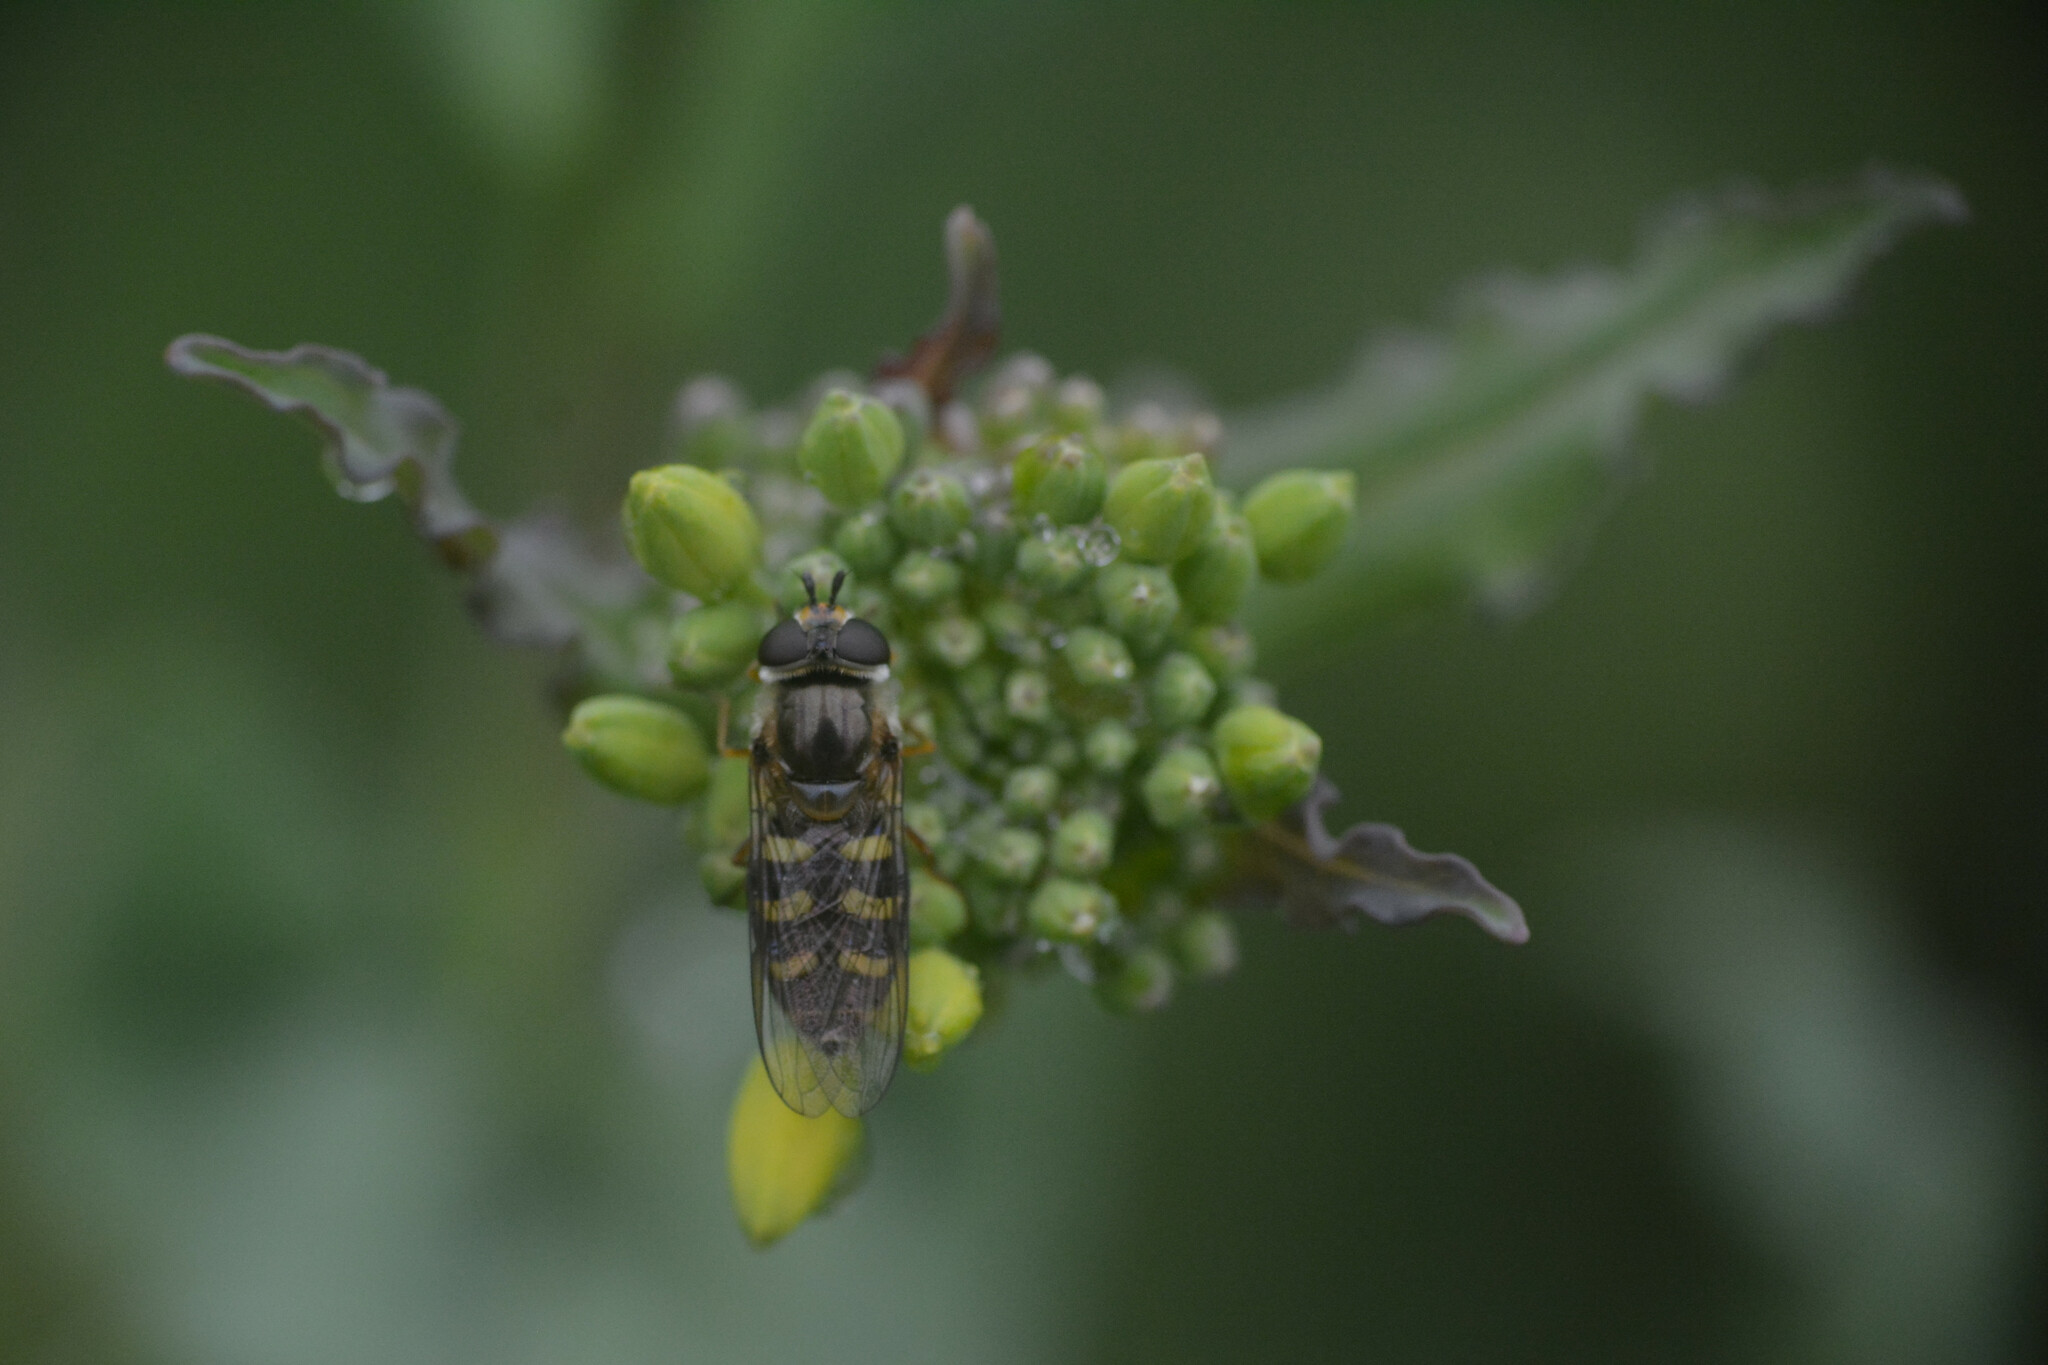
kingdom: Animalia
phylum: Arthropoda
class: Insecta
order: Diptera
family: Syrphidae
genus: Eupeodes
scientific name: Eupeodes
